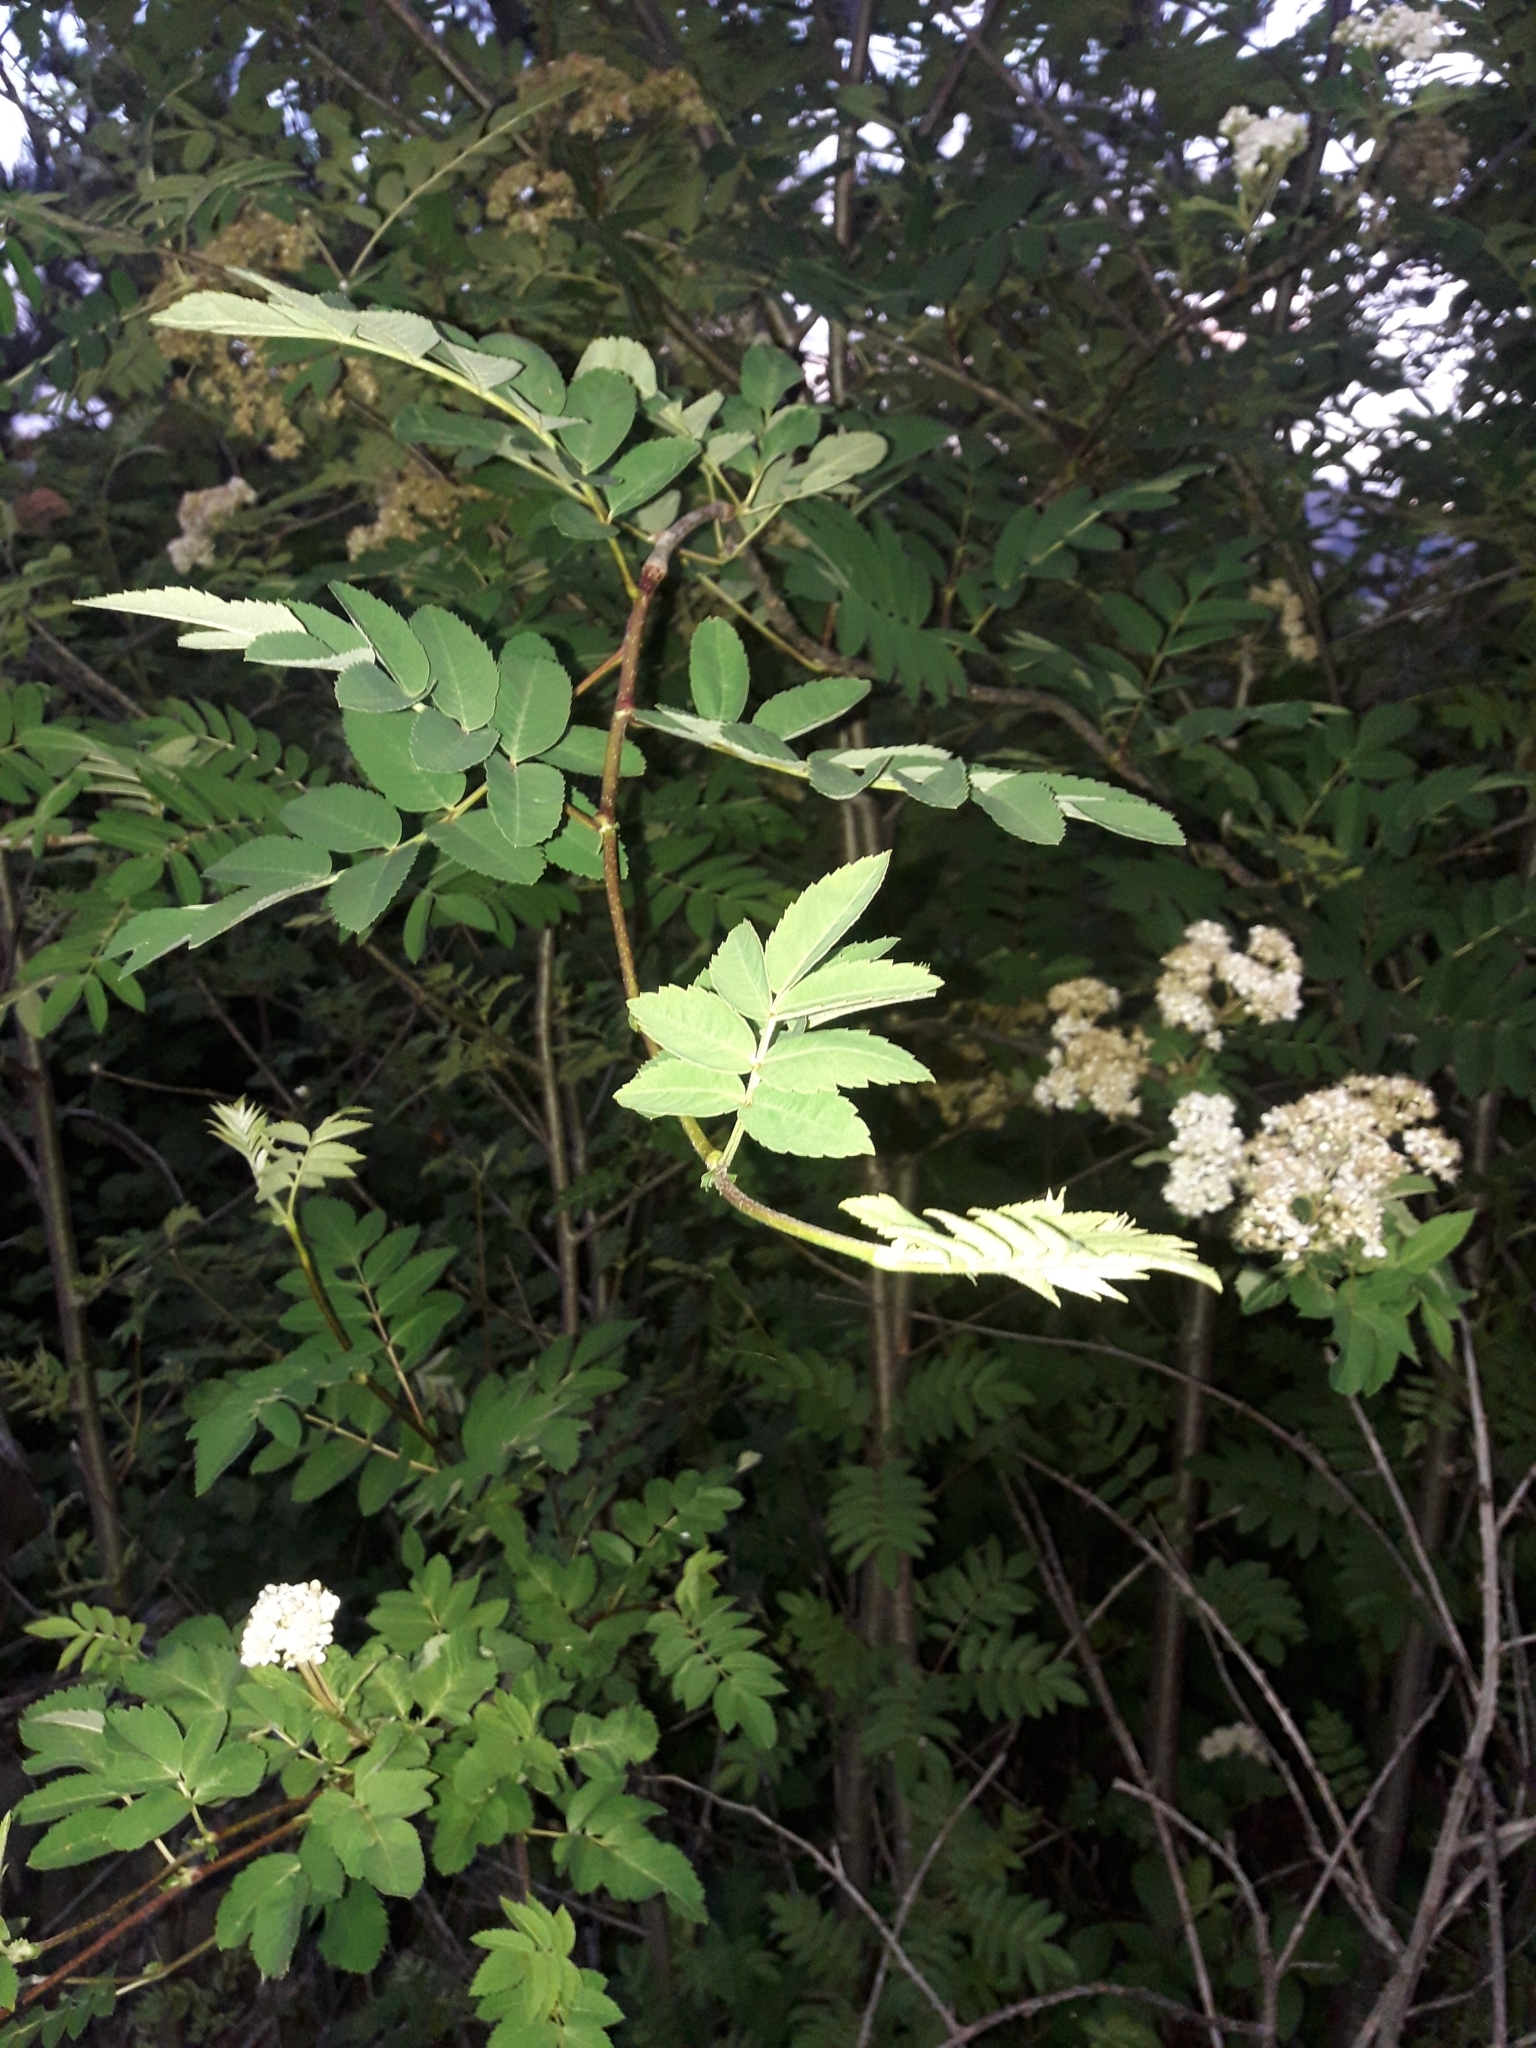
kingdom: Plantae
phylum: Tracheophyta
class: Magnoliopsida
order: Rosales
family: Rosaceae
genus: Sorbus
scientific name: Sorbus aucuparia
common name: Rowan
